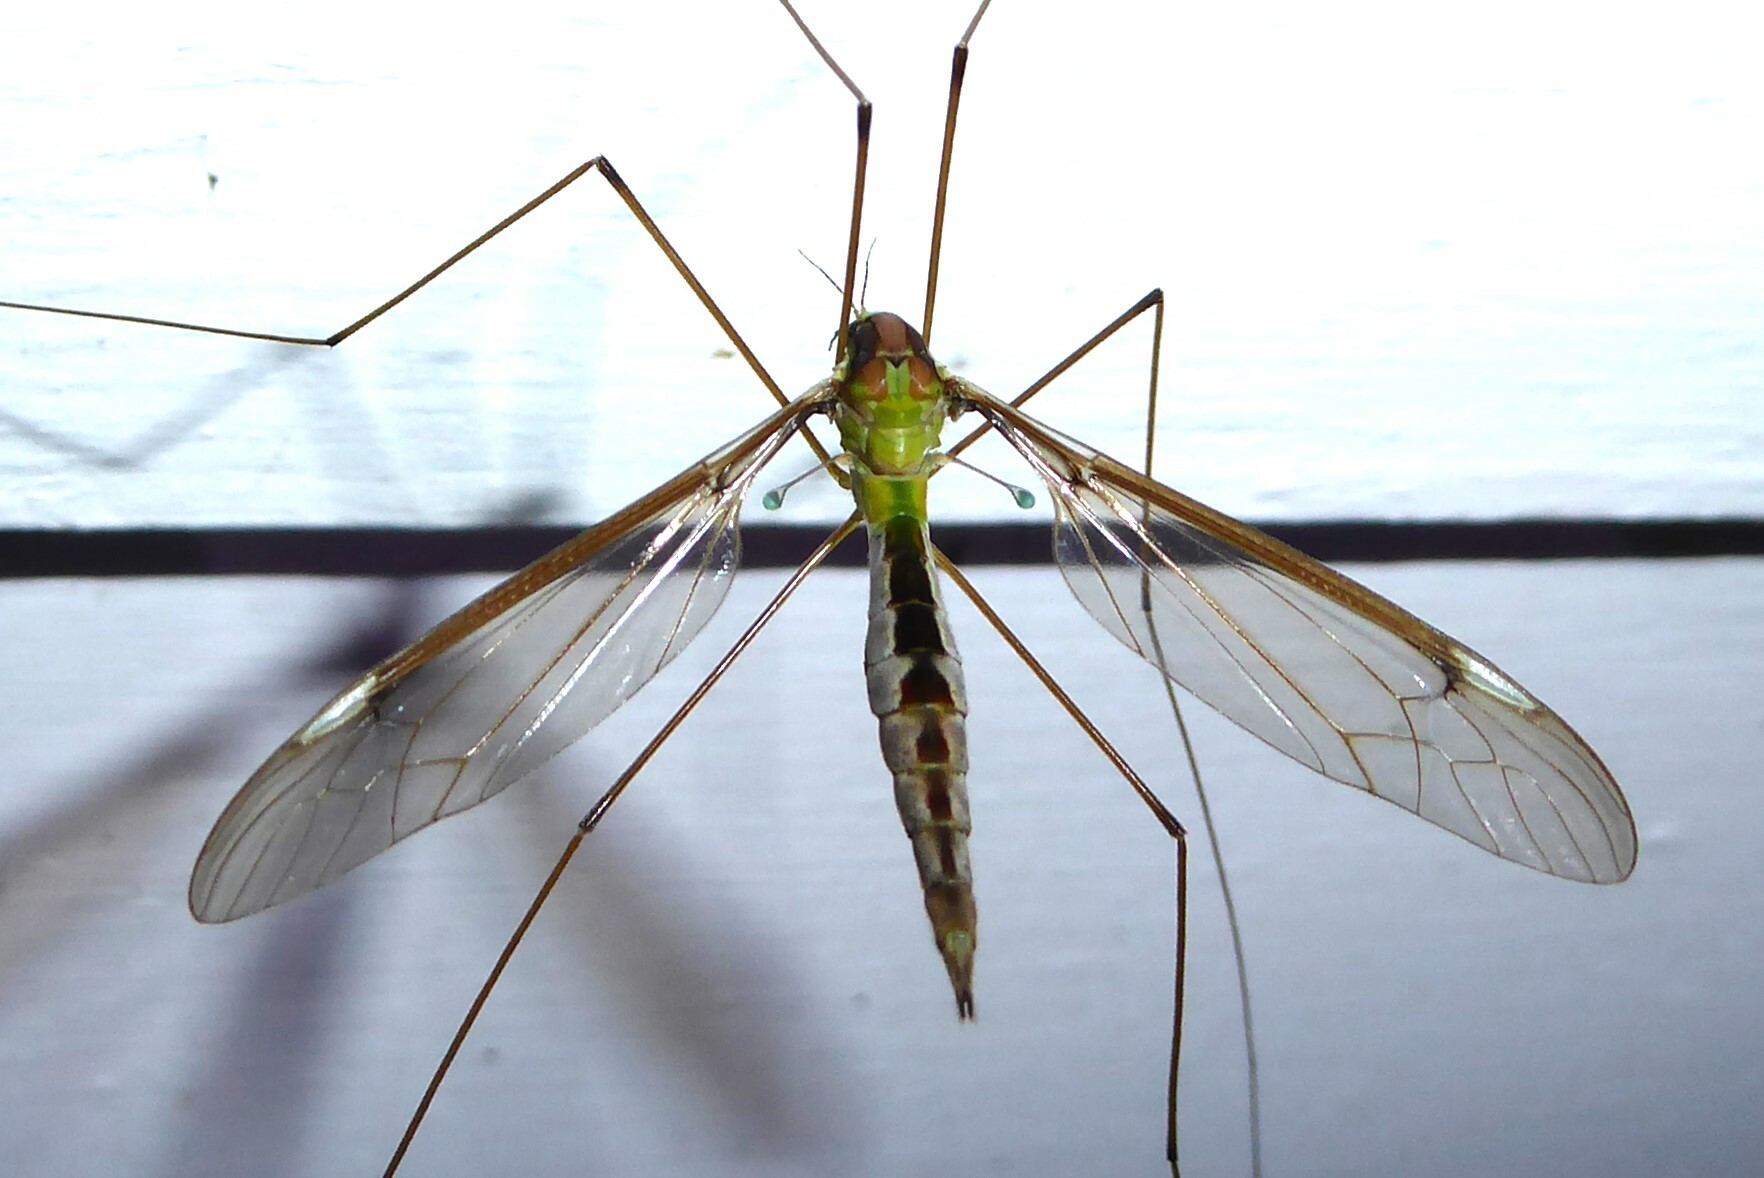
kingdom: Animalia
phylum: Arthropoda
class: Insecta
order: Diptera
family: Tipulidae
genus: Leptotarsus
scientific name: Leptotarsus albistigma
